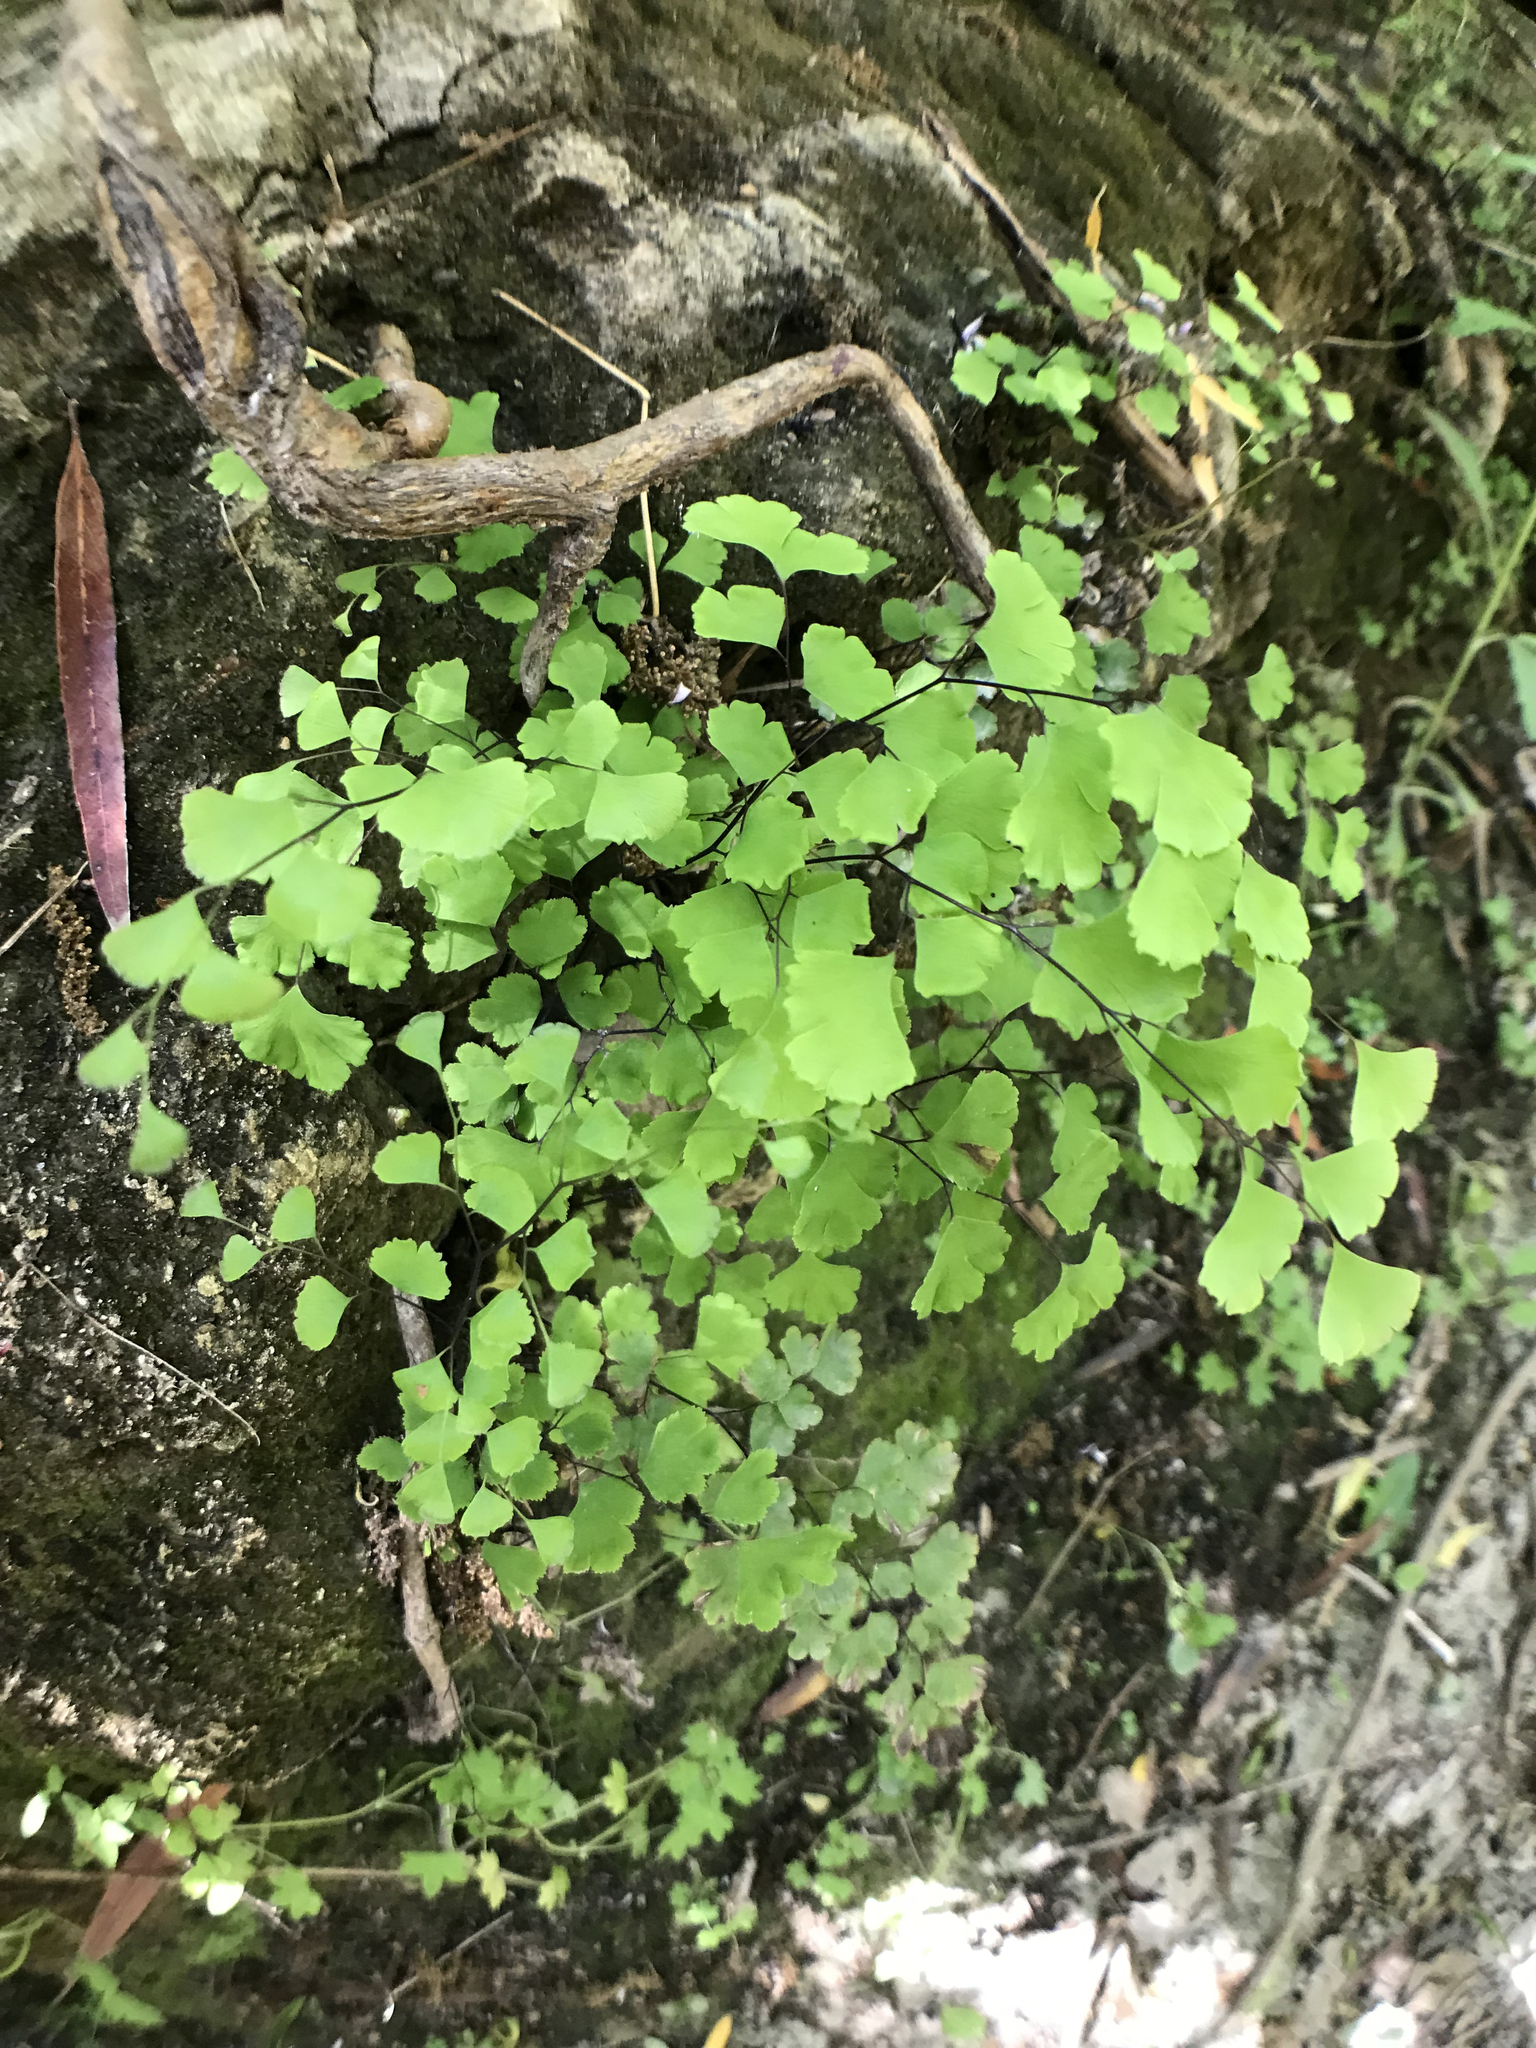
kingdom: Plantae
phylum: Tracheophyta
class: Polypodiopsida
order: Polypodiales
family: Pteridaceae
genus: Adiantum
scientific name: Adiantum capillus-veneris
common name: Maidenhair fern
